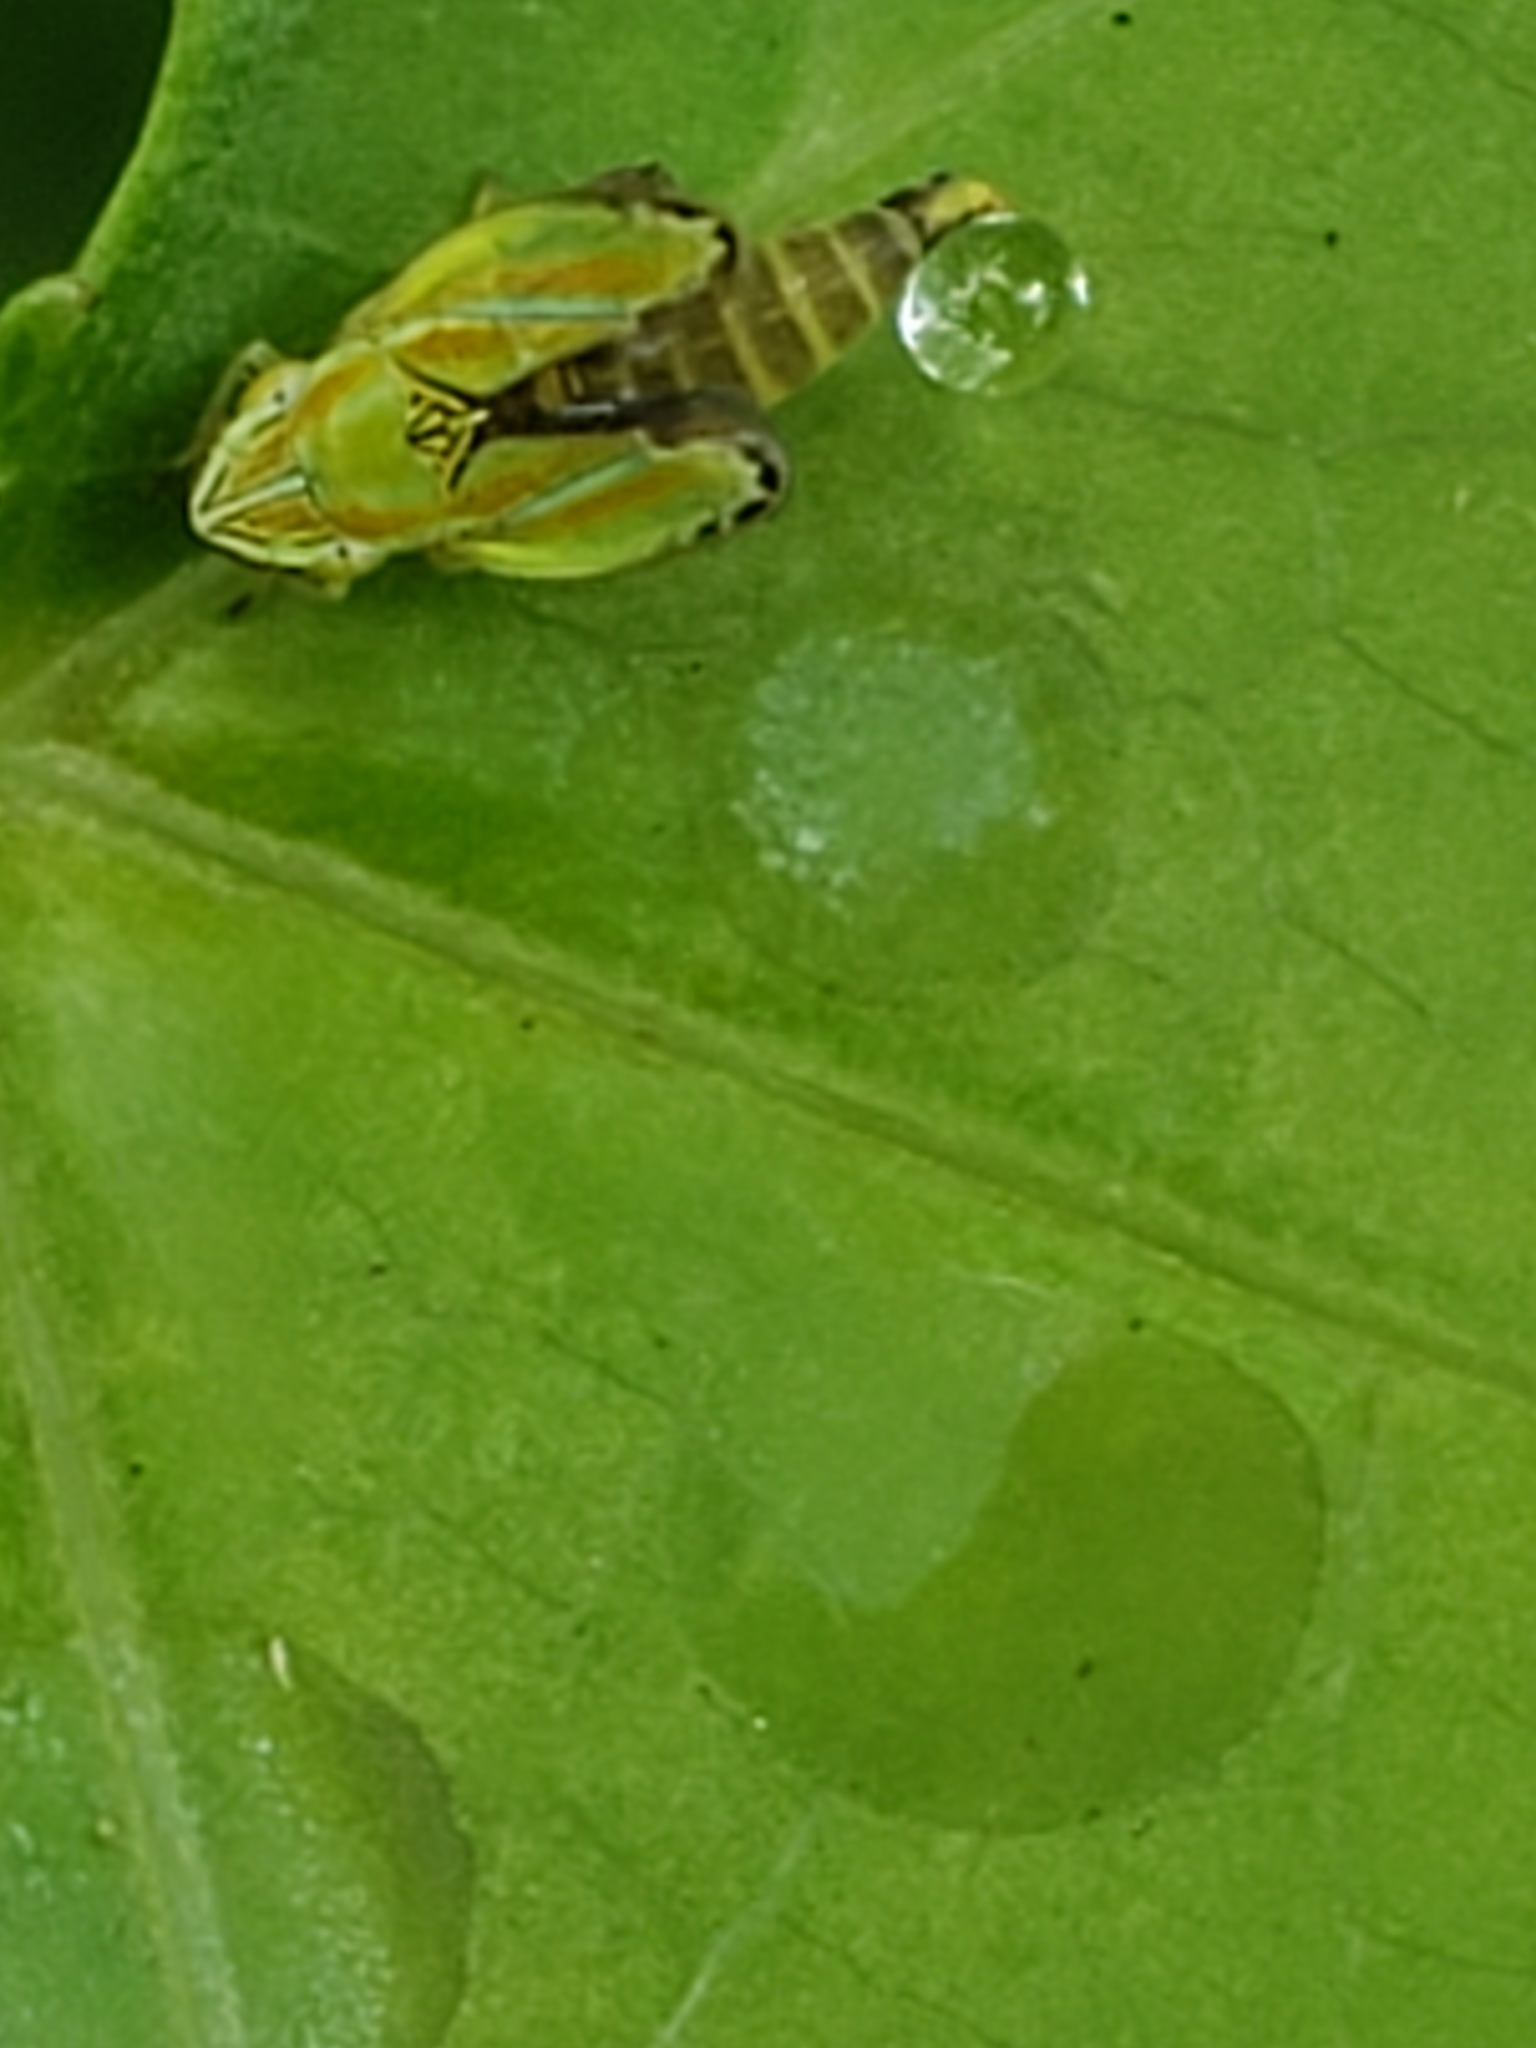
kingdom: Animalia
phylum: Arthropoda
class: Insecta
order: Hemiptera
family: Cicadellidae
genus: Graphocephala
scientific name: Graphocephala versuta
